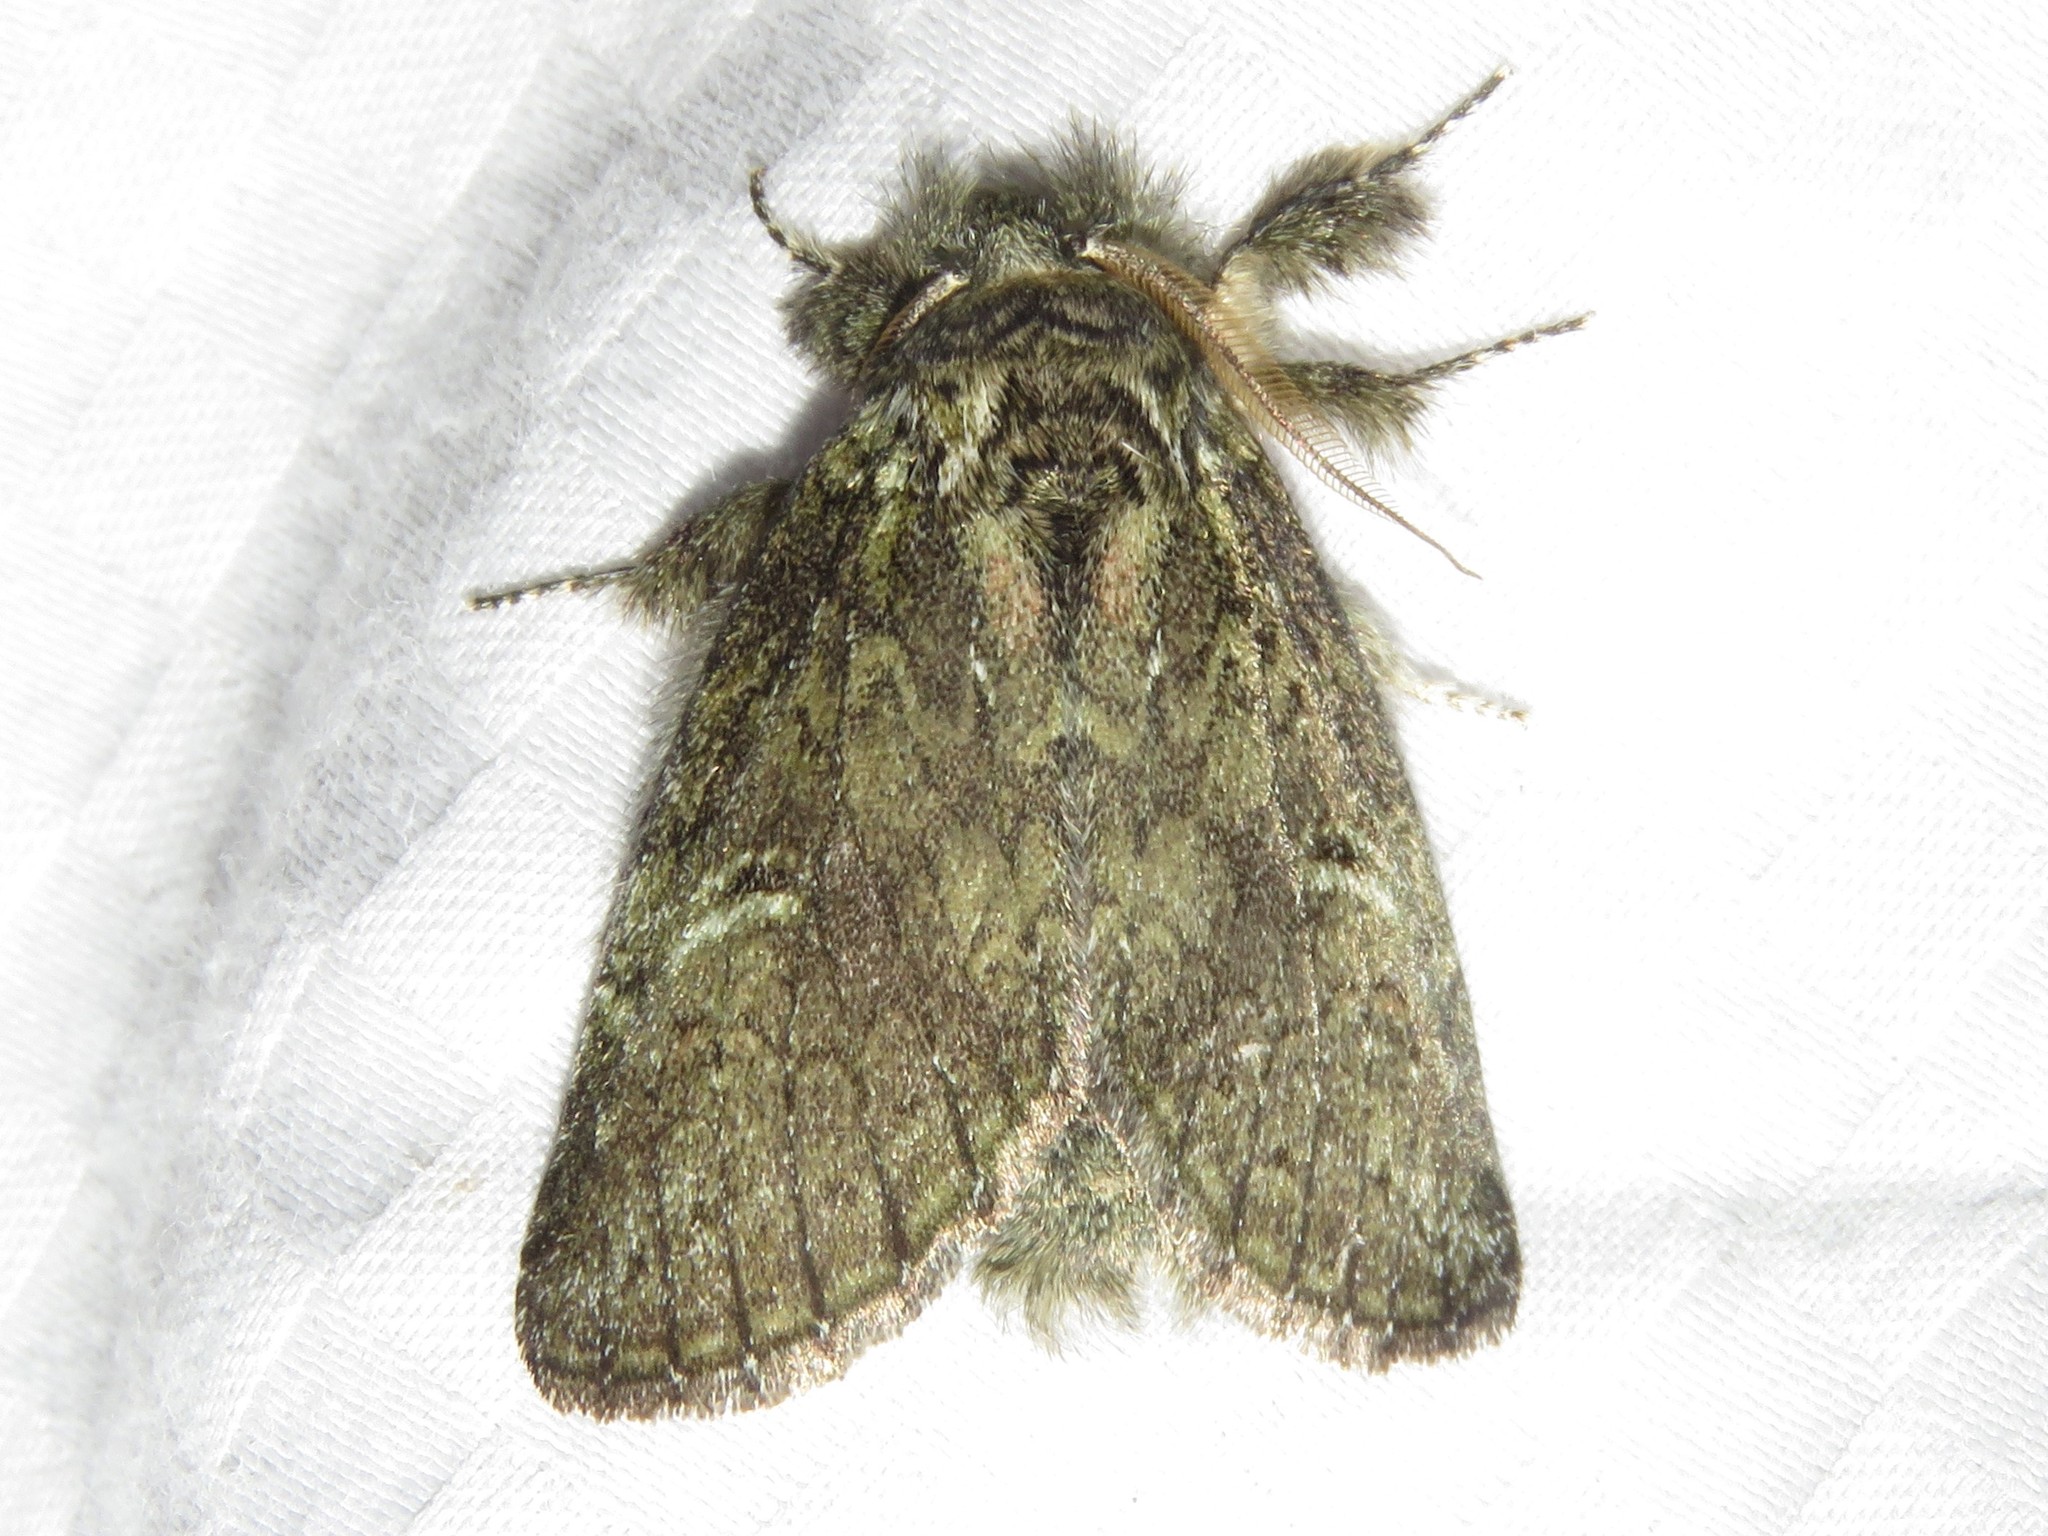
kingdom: Animalia
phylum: Arthropoda
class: Insecta
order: Lepidoptera
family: Notodontidae
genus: Disphragis
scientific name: Disphragis Cecrita guttivitta
